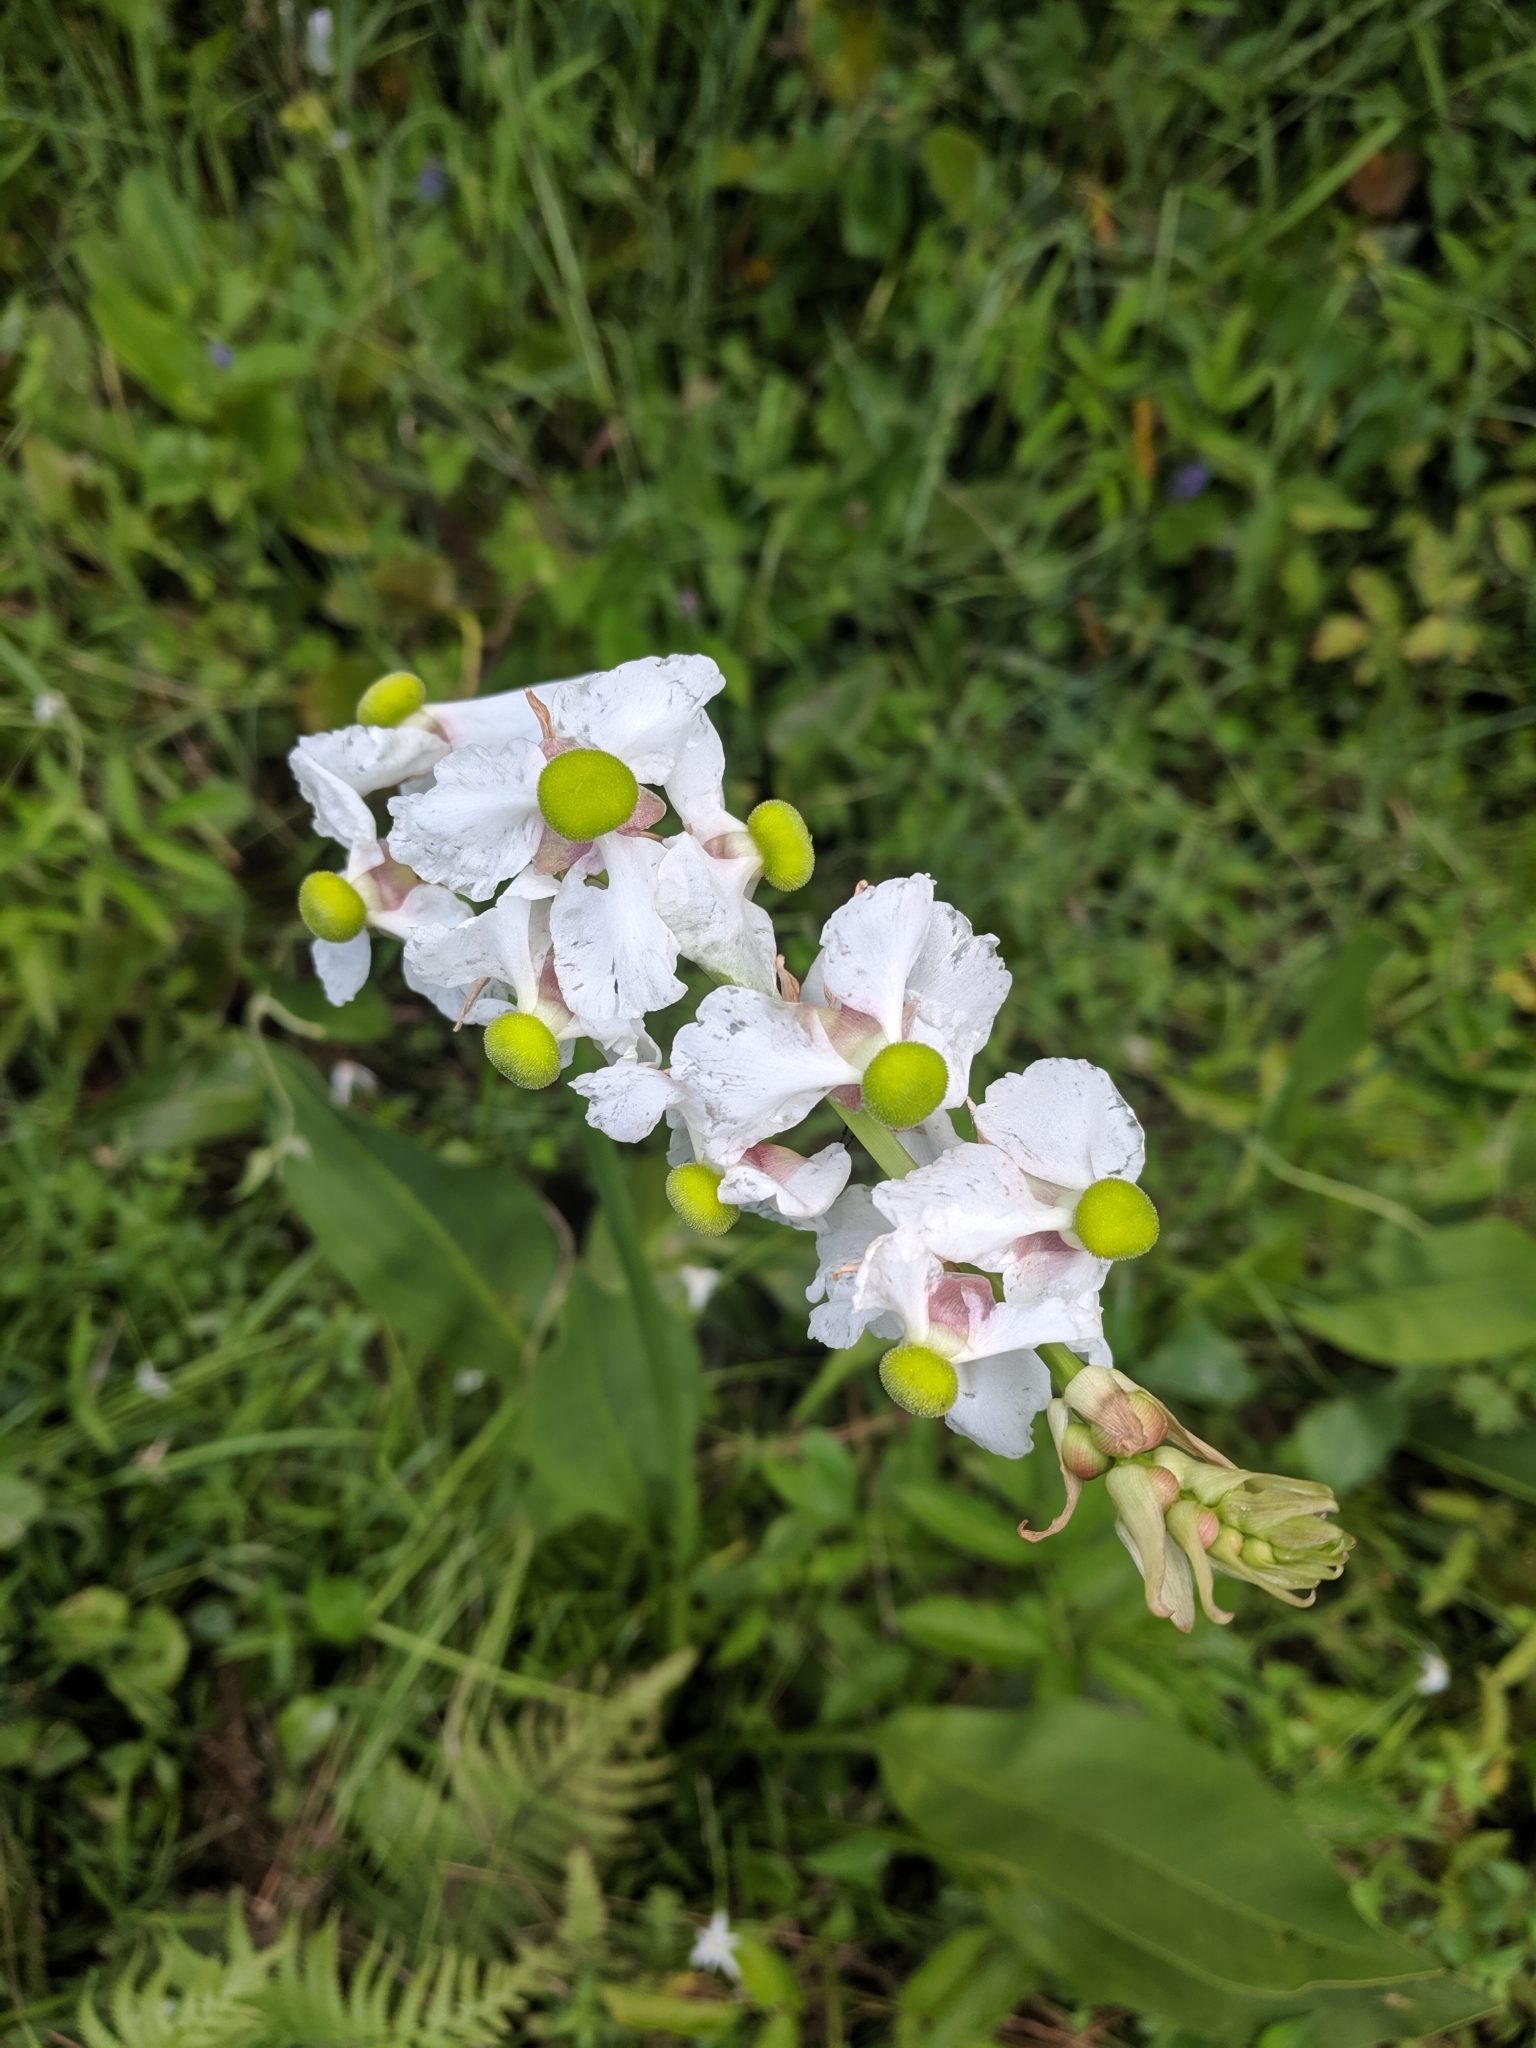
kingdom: Plantae
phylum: Tracheophyta
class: Liliopsida
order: Alismatales
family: Alismataceae
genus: Sagittaria
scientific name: Sagittaria lancifolia
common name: Lance-leaf arrowhead
